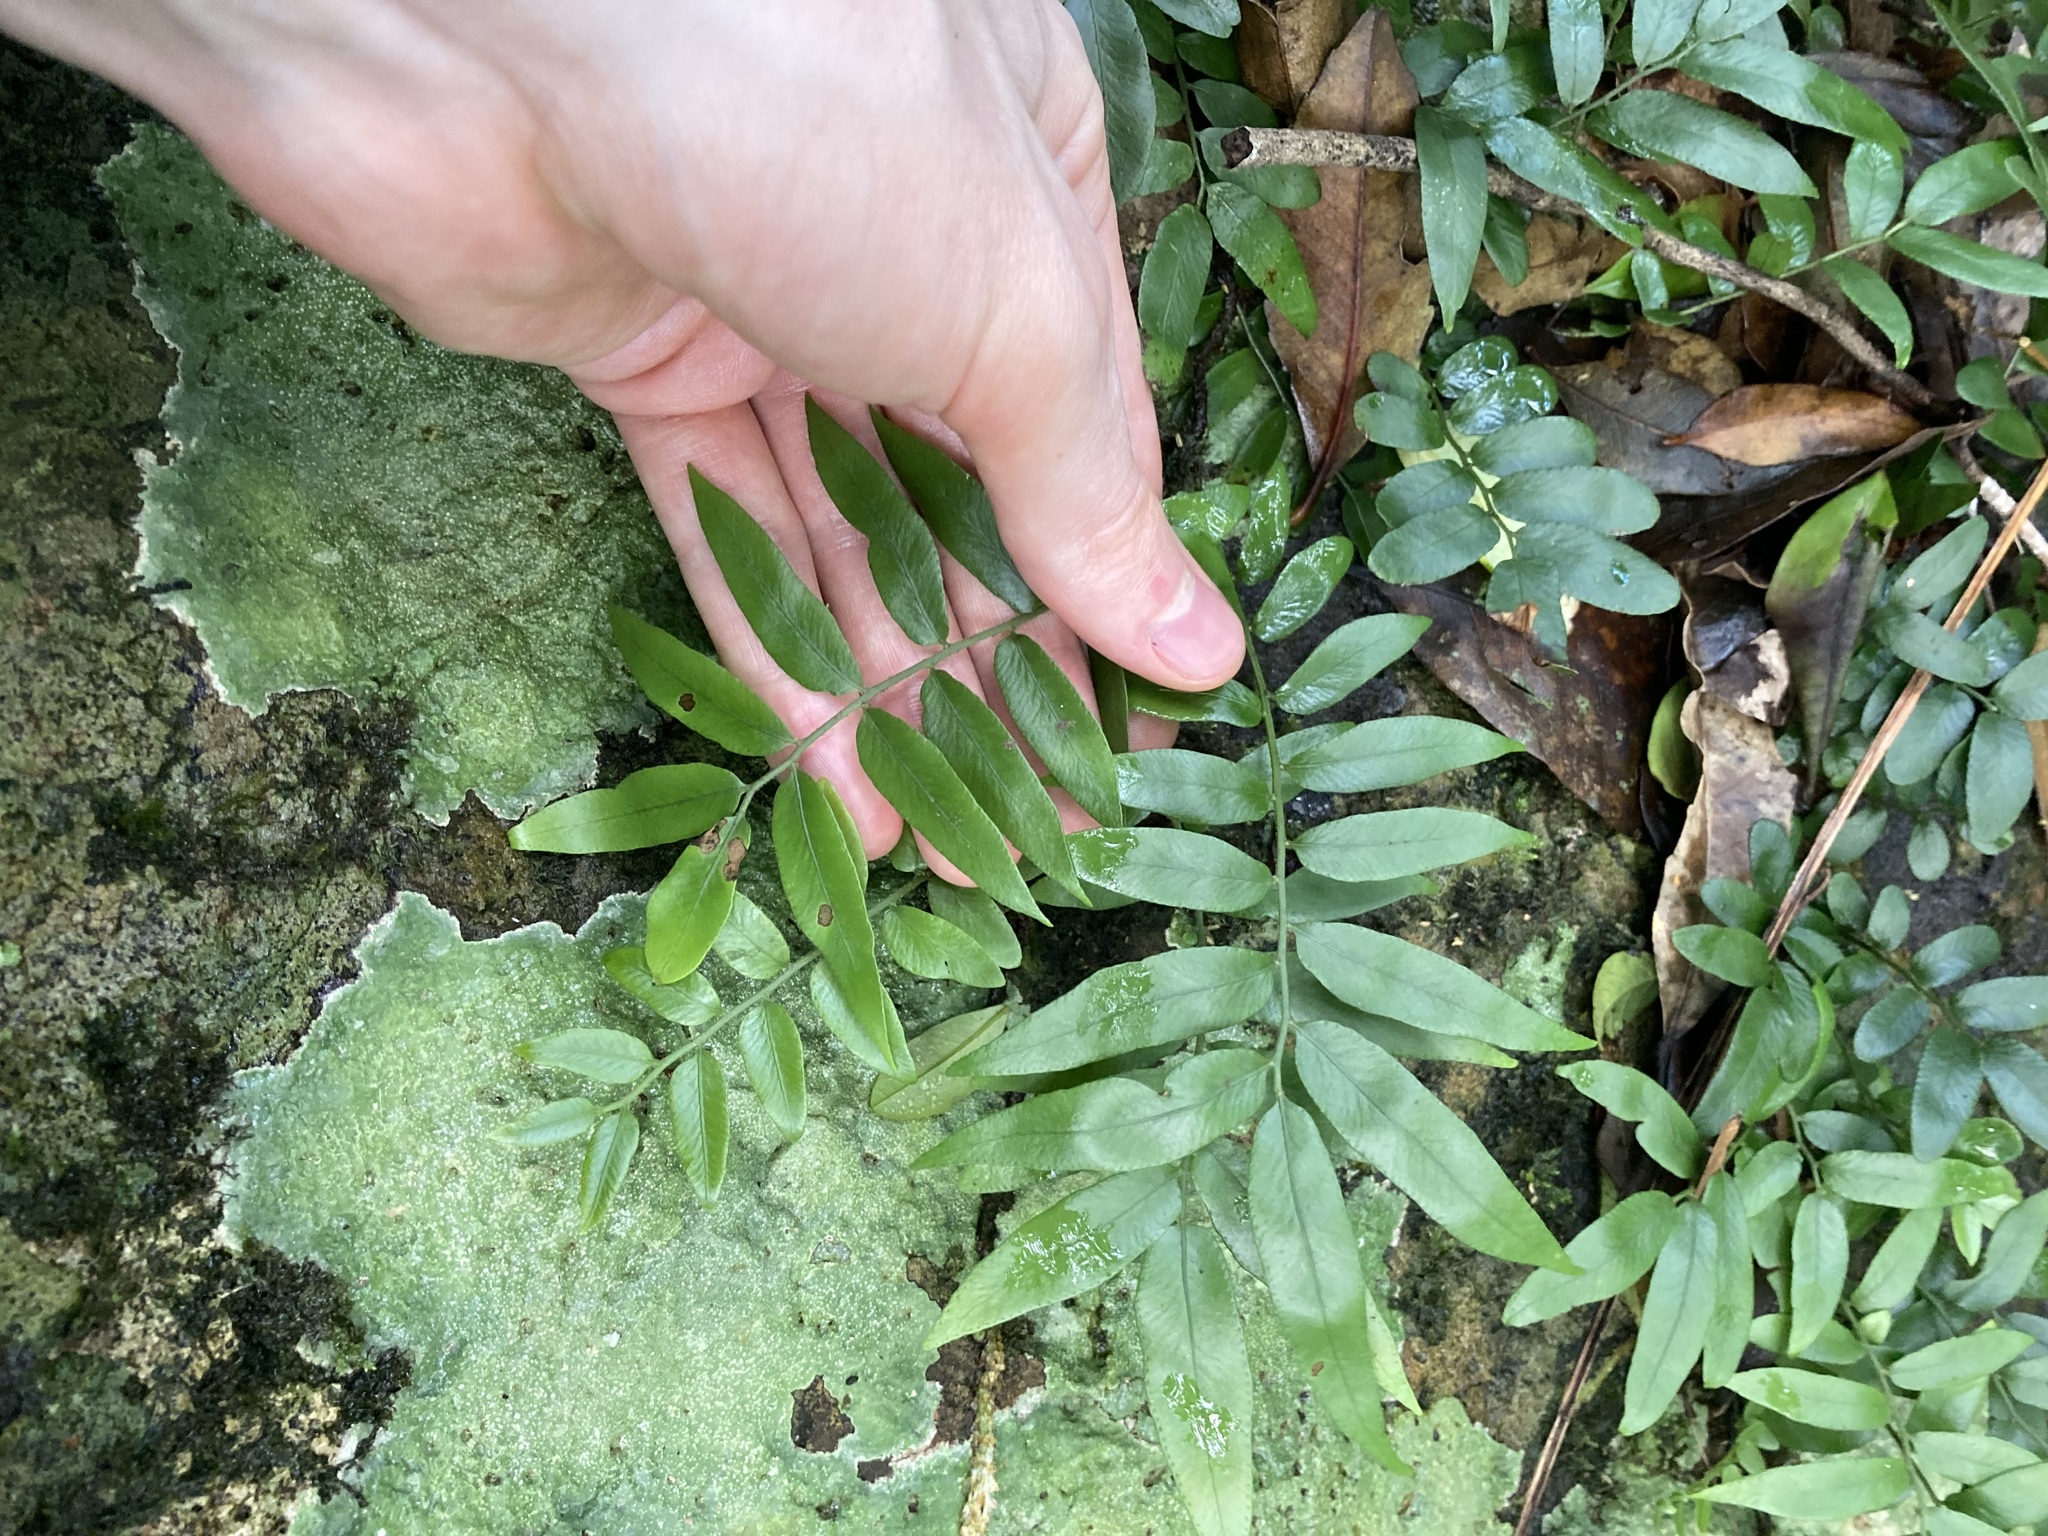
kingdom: Plantae
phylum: Tracheophyta
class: Polypodiopsida
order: Polypodiales
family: Tectariaceae
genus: Arthropteris
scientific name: Arthropteris tenella
